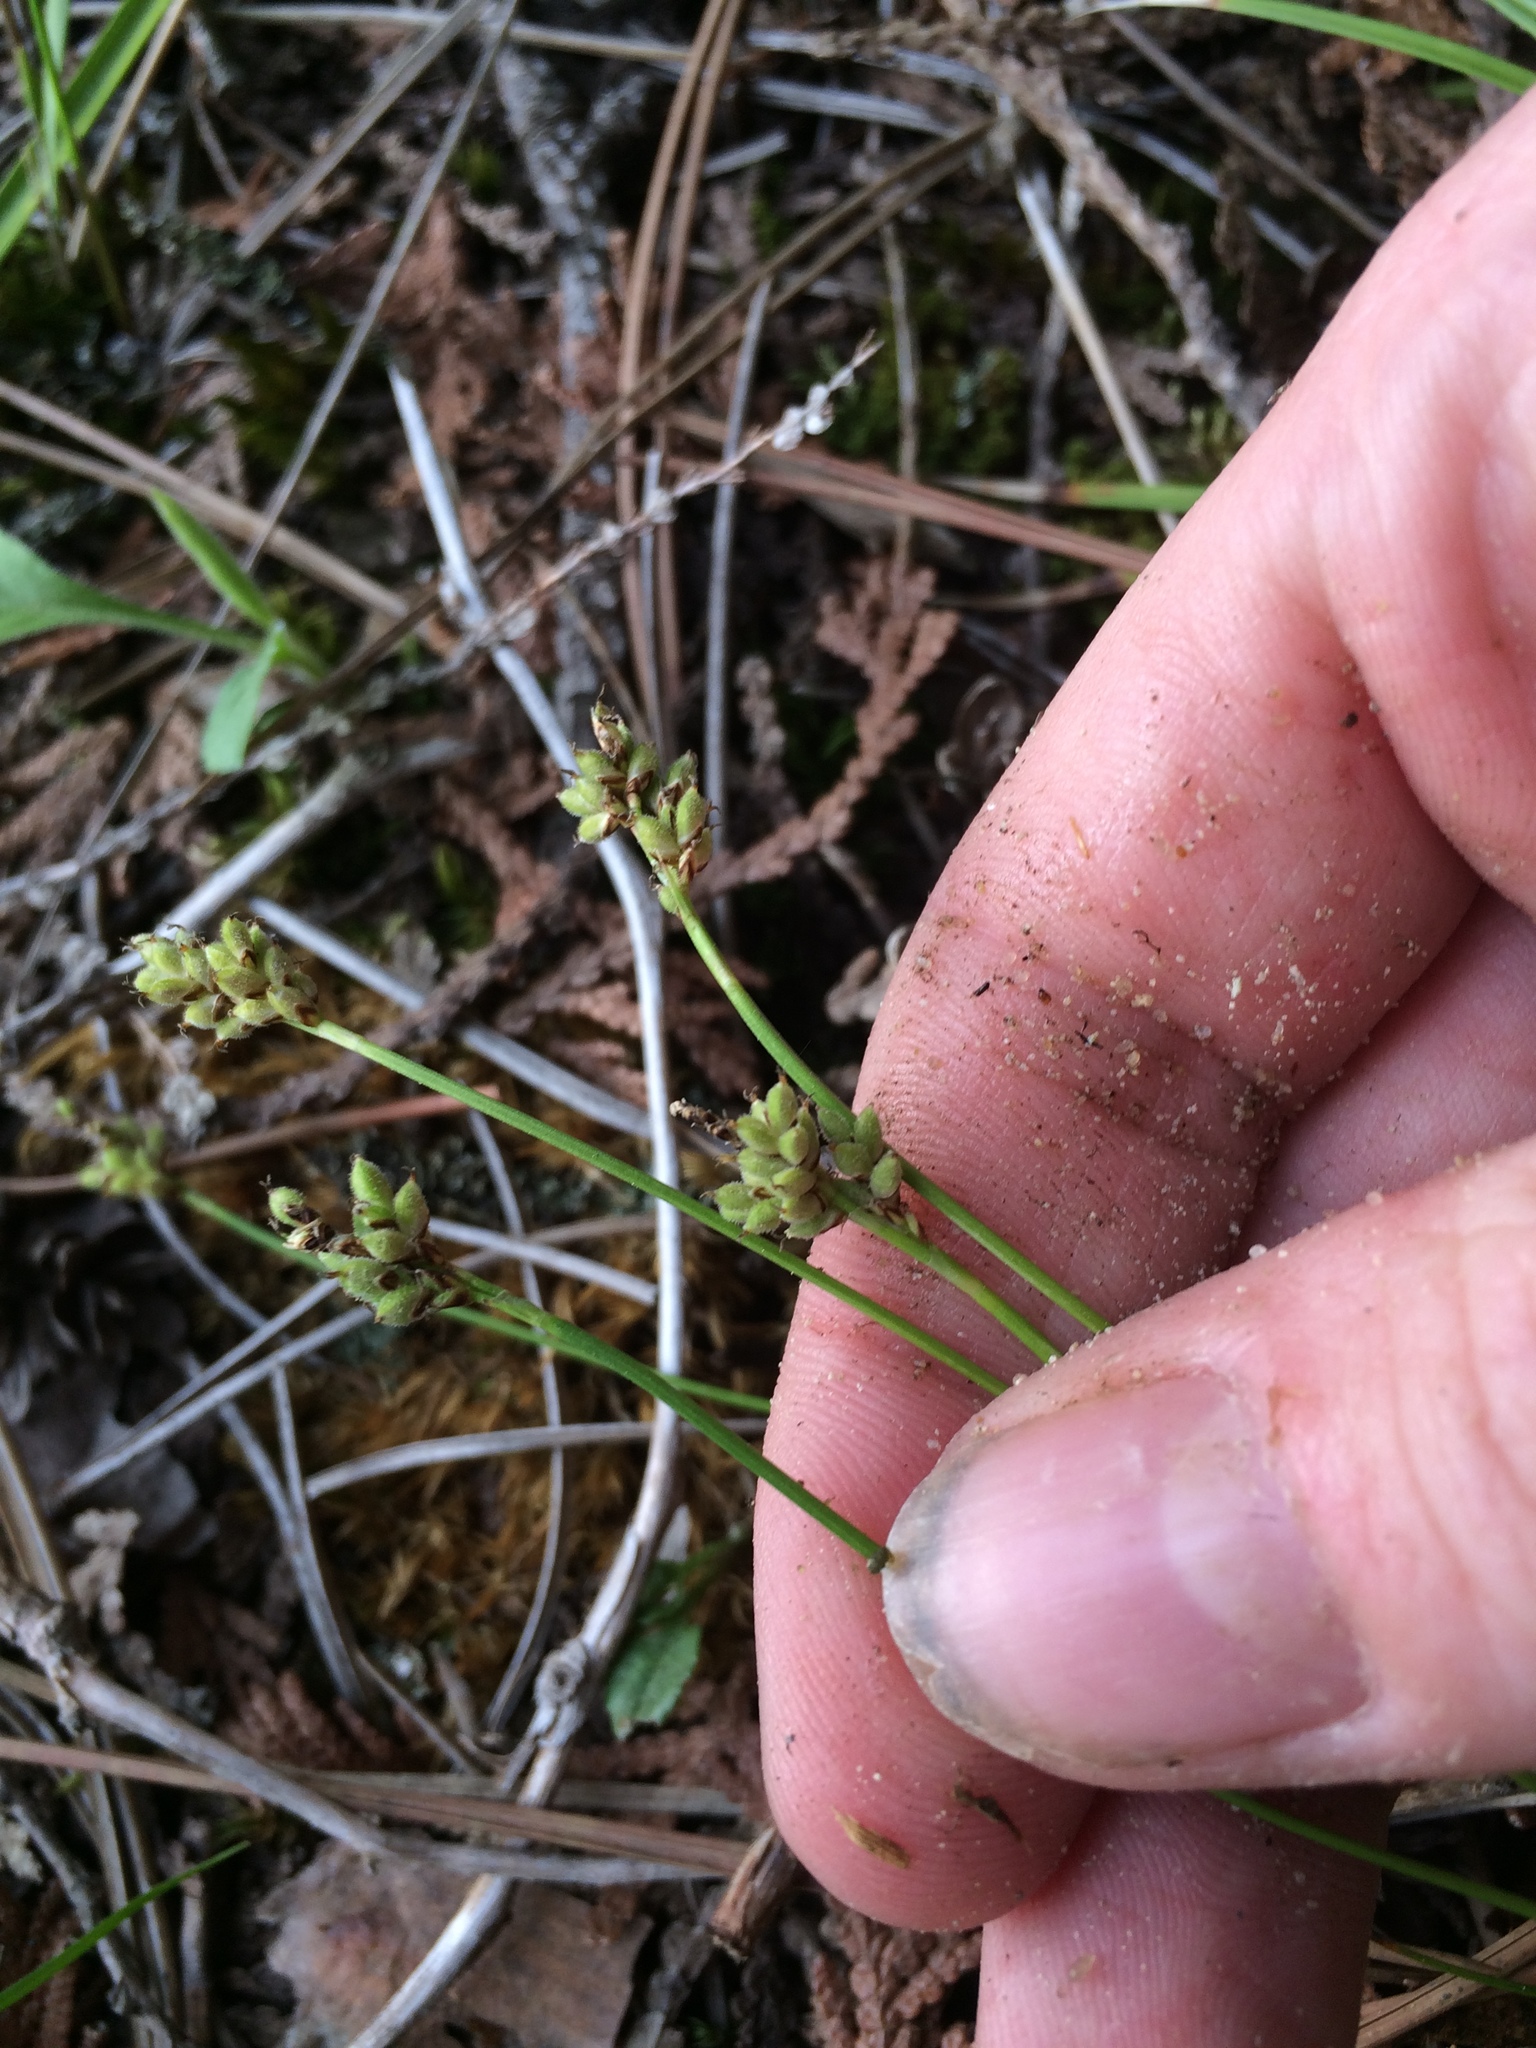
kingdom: Plantae
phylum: Tracheophyta
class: Liliopsida
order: Poales
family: Cyperaceae
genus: Carex
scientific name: Carex concinna
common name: Beautiful sedge
